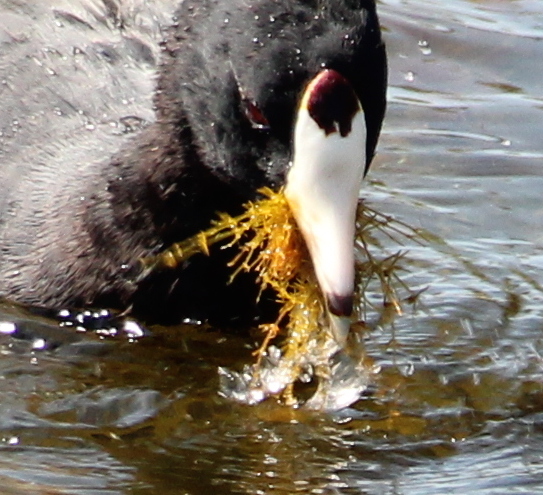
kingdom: Plantae
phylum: Charophyta
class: Charophyceae
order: Charales
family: Characeae
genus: Chara
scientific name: Chara hornemannii
